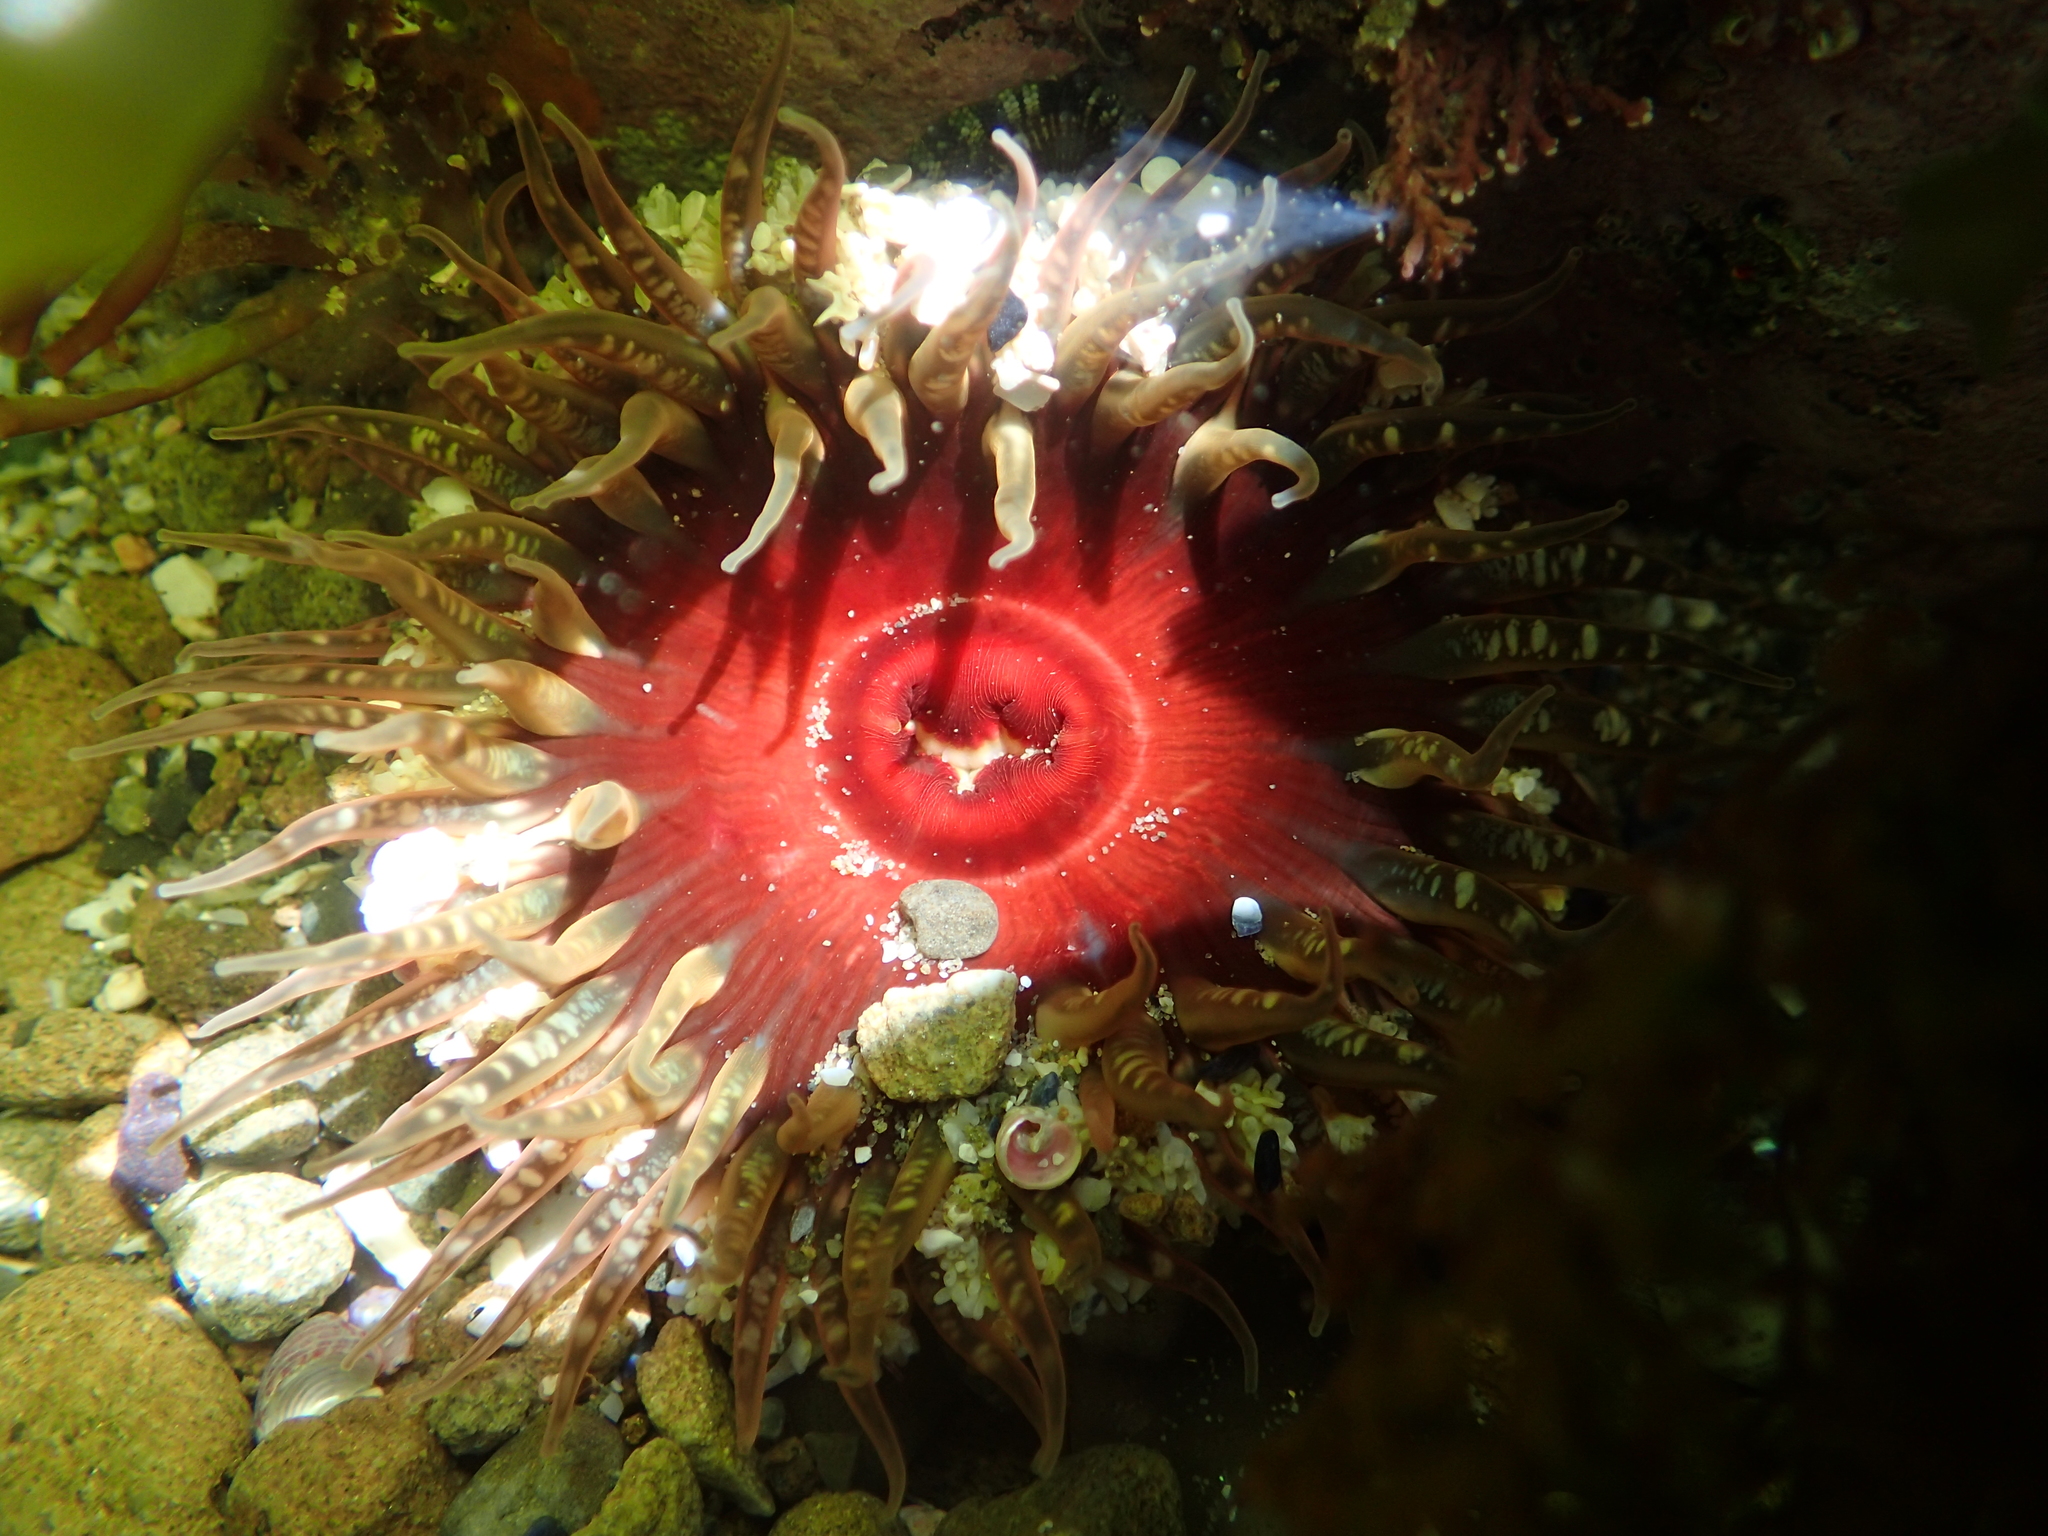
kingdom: Animalia
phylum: Cnidaria
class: Anthozoa
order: Actiniaria
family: Actiniidae
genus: Oulactis
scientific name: Oulactis muscosa
